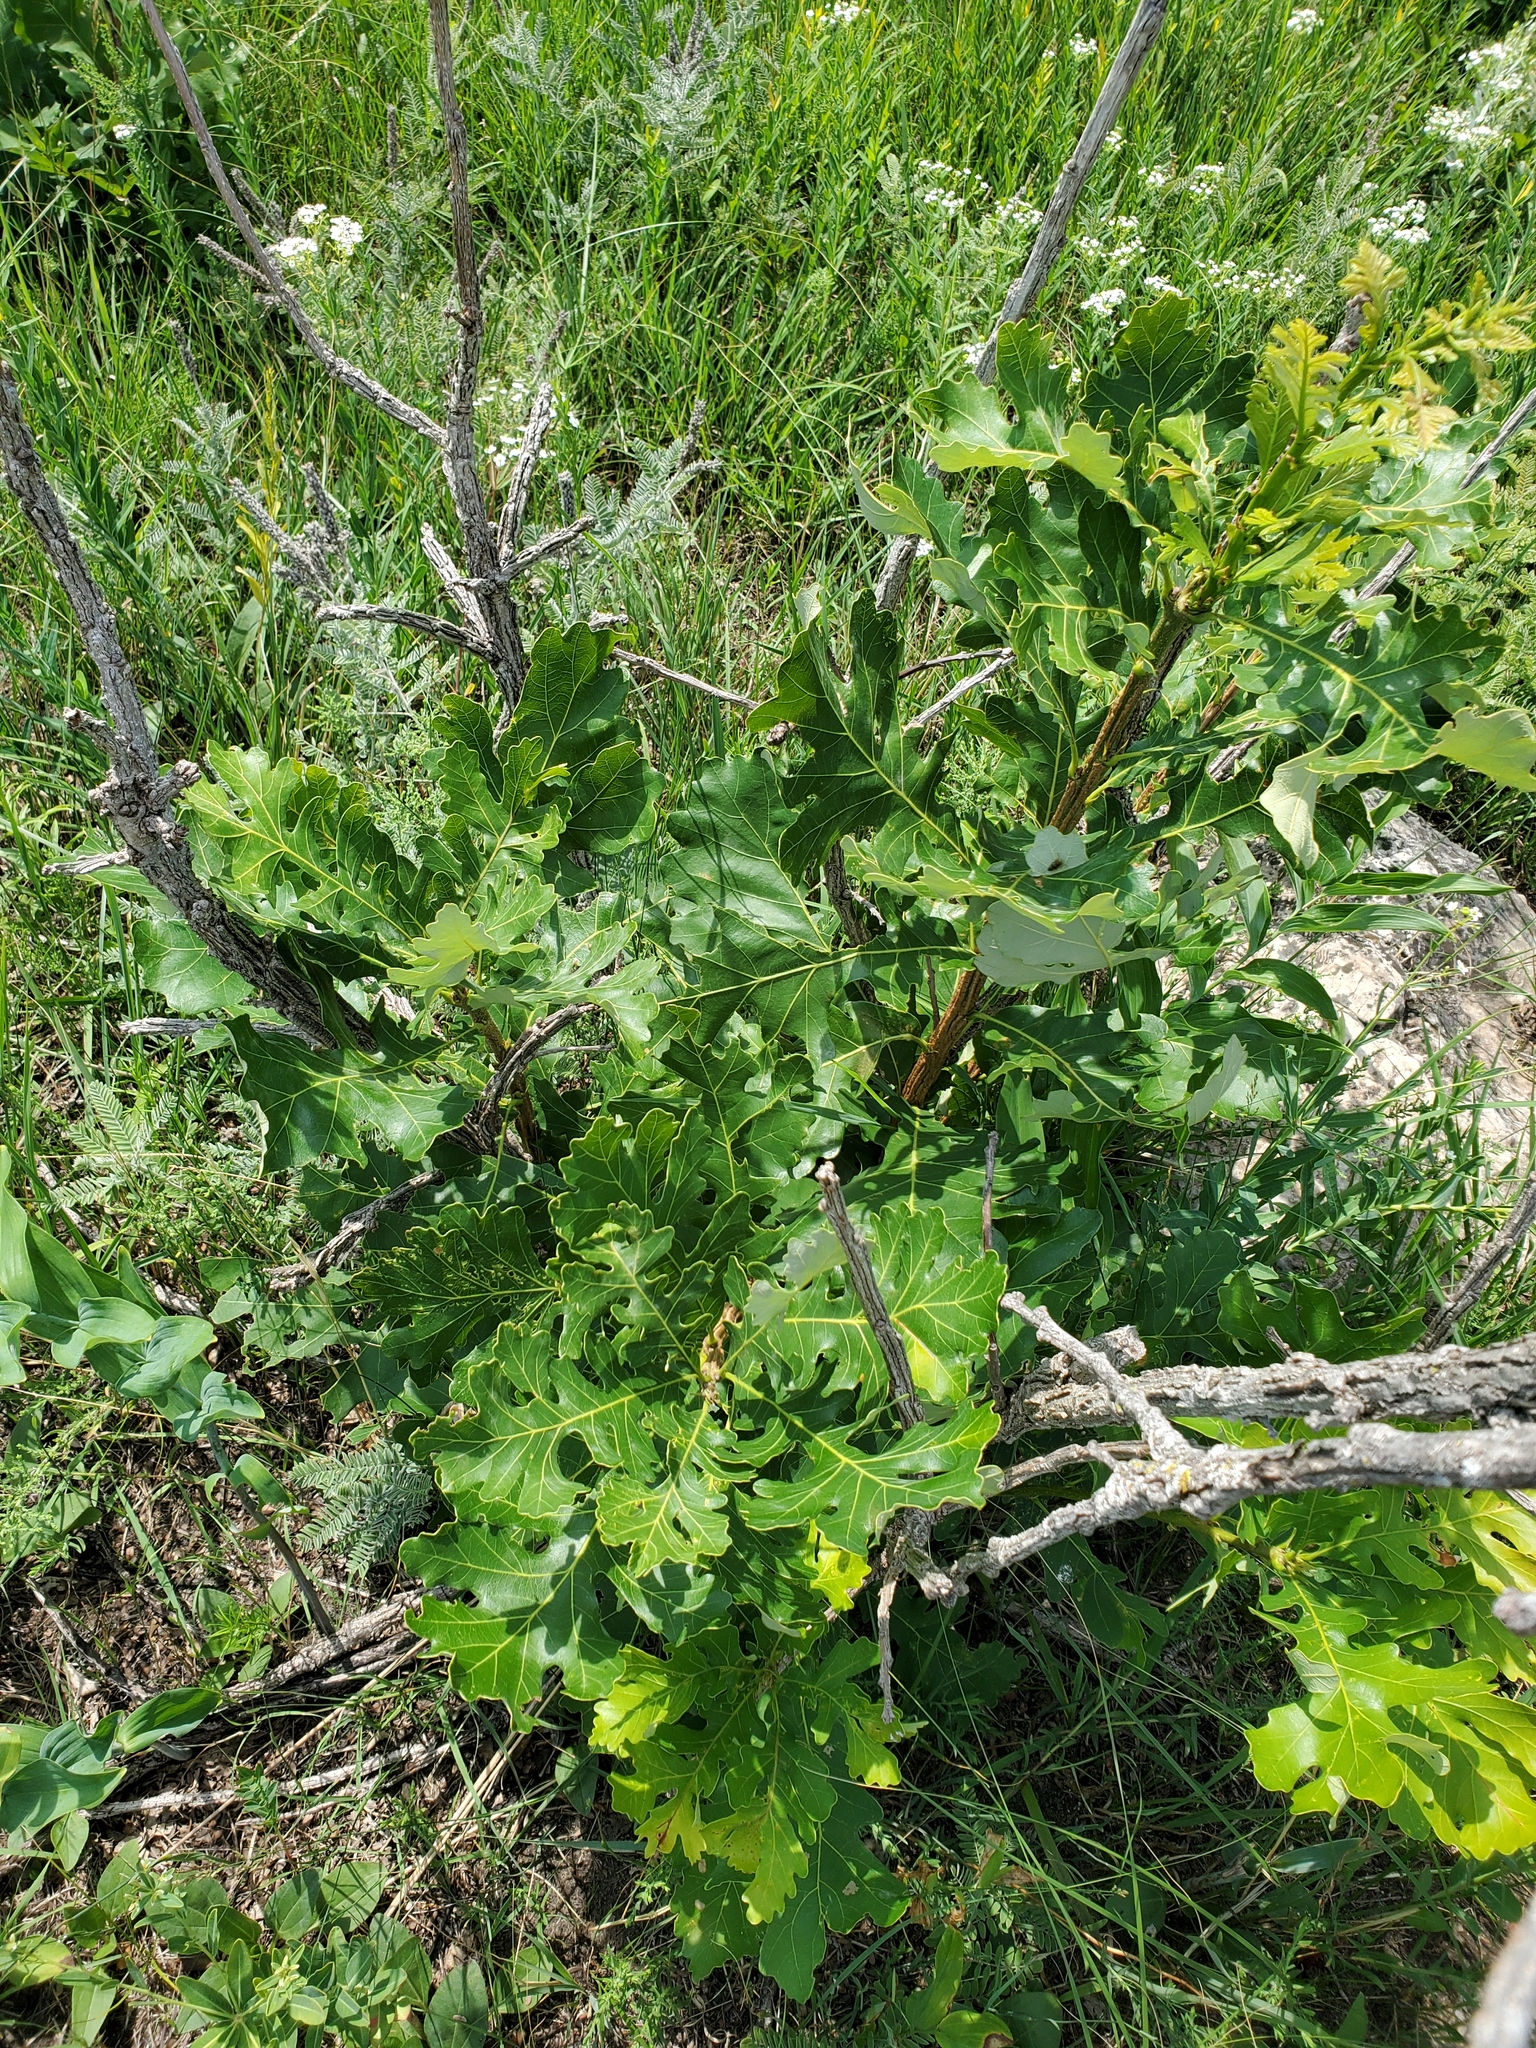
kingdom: Plantae
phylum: Tracheophyta
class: Magnoliopsida
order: Fagales
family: Fagaceae
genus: Quercus
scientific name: Quercus macrocarpa
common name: Bur oak
